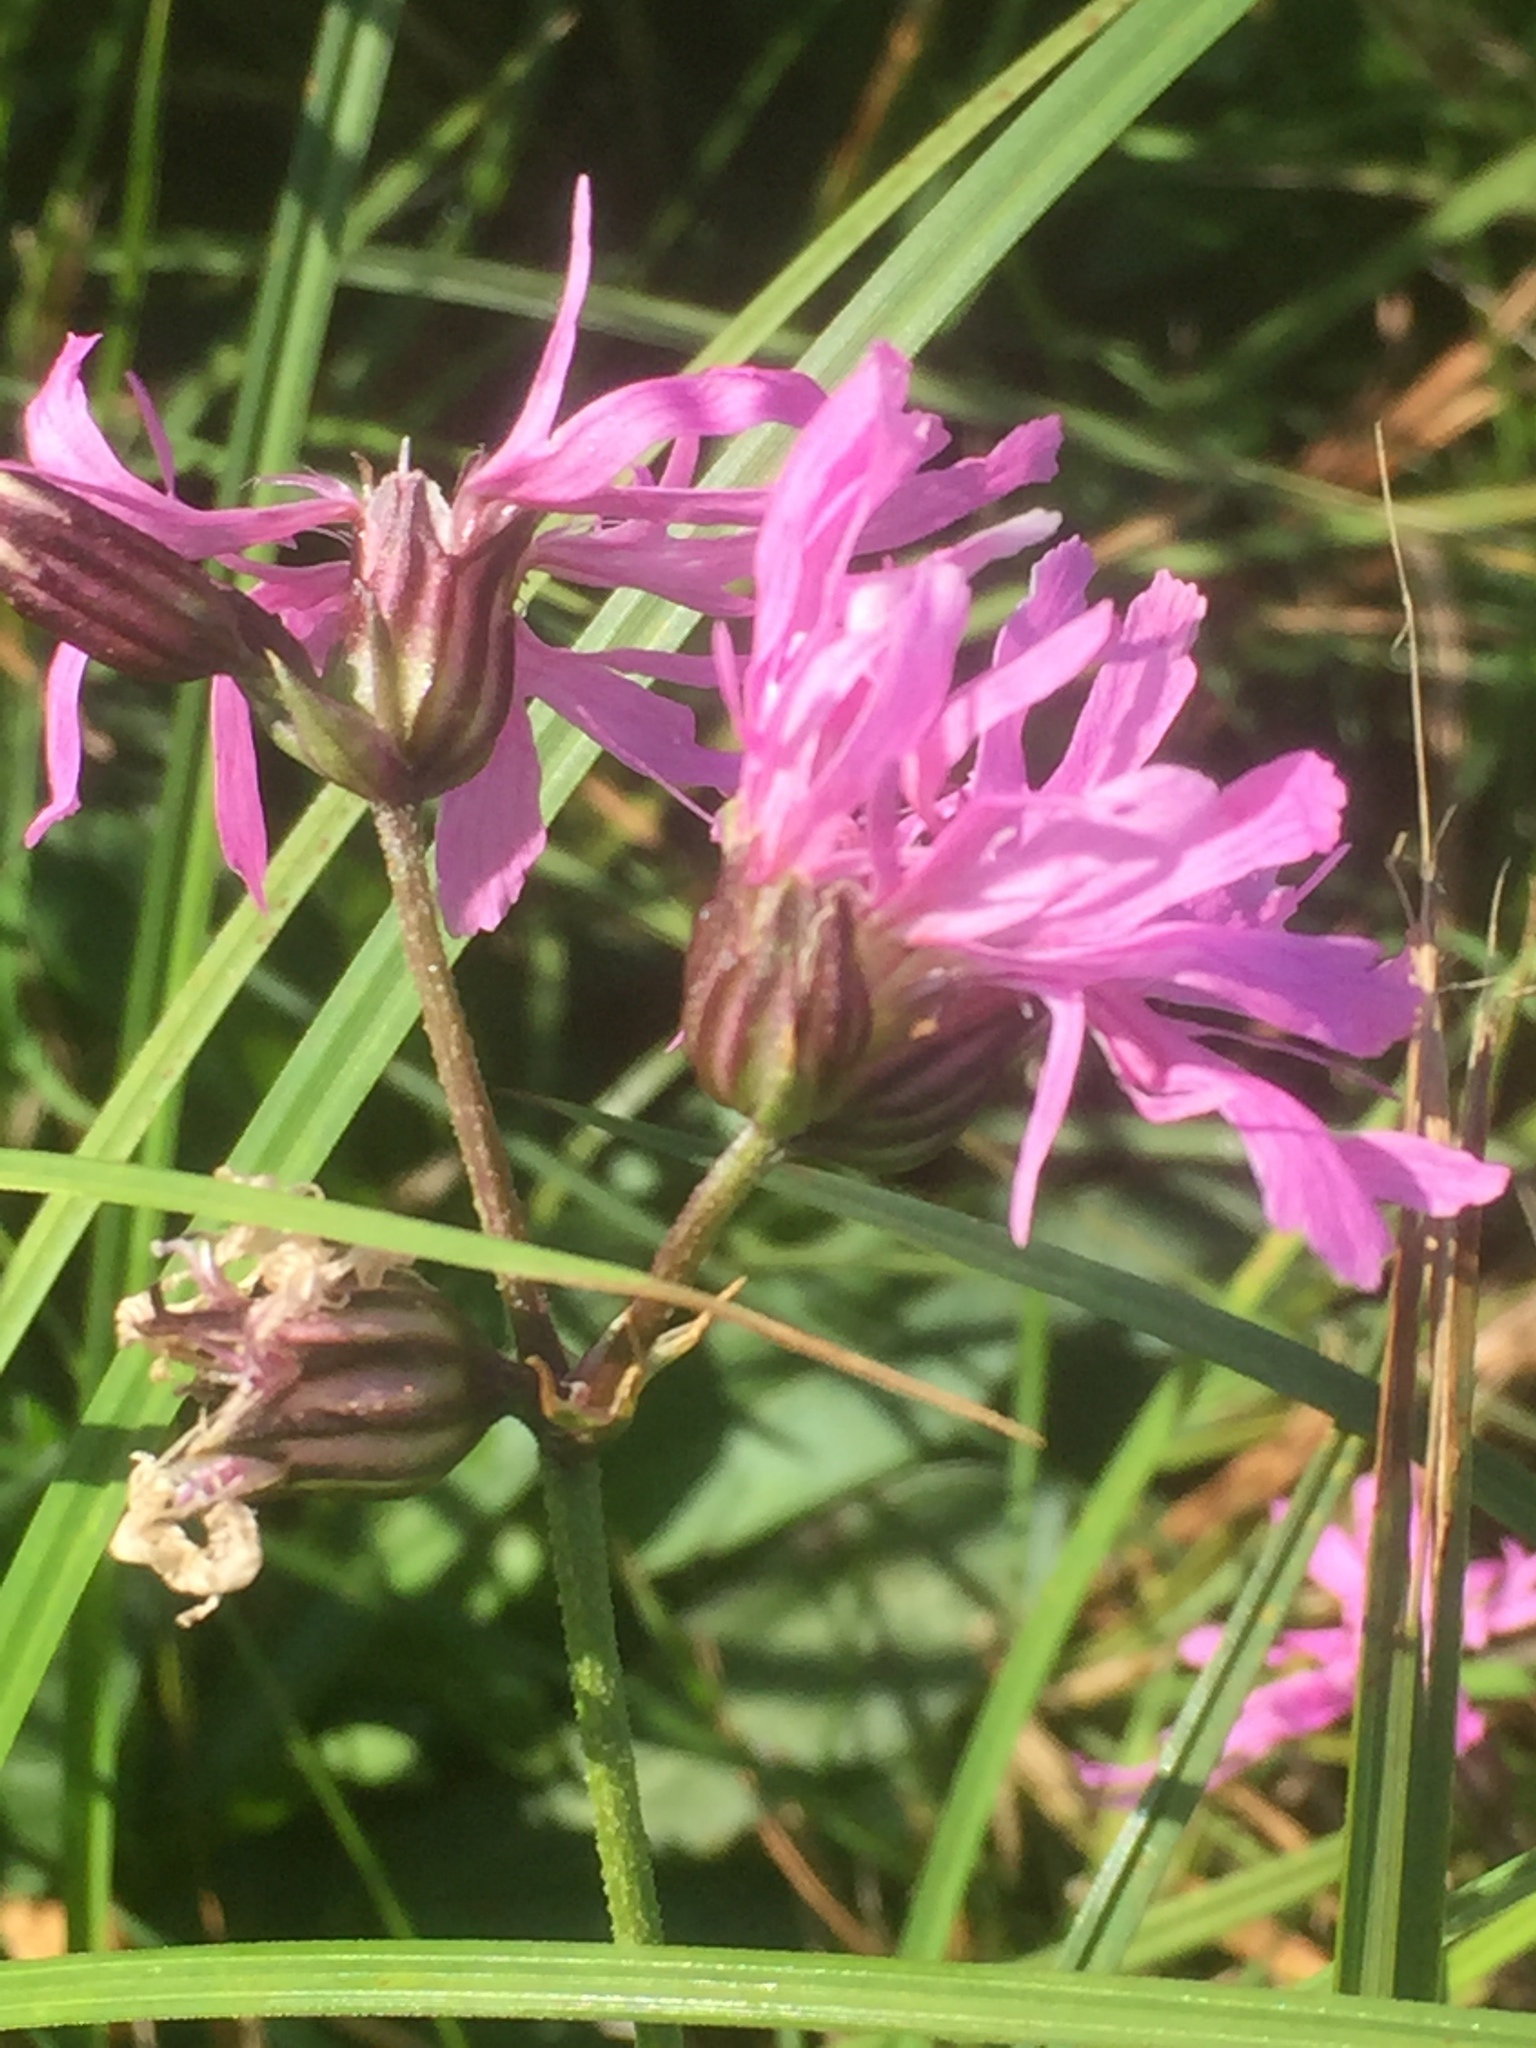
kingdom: Plantae
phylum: Tracheophyta
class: Magnoliopsida
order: Caryophyllales
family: Caryophyllaceae
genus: Silene
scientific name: Silene flos-cuculi
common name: Ragged-robin
